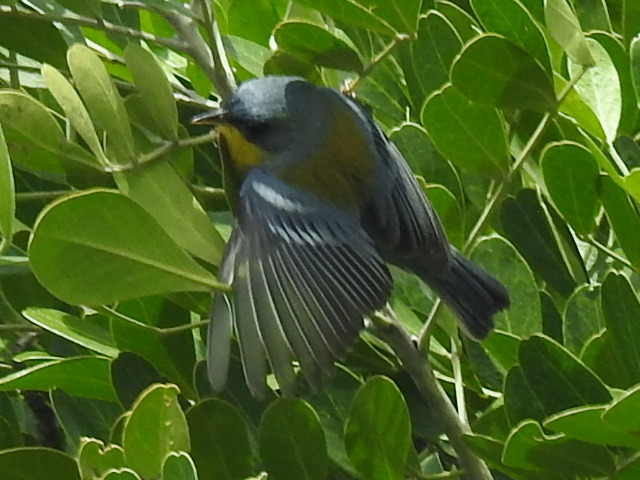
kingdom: Animalia
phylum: Chordata
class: Aves
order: Passeriformes
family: Parulidae
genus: Setophaga
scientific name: Setophaga pitiayumi
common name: Tropical parula
